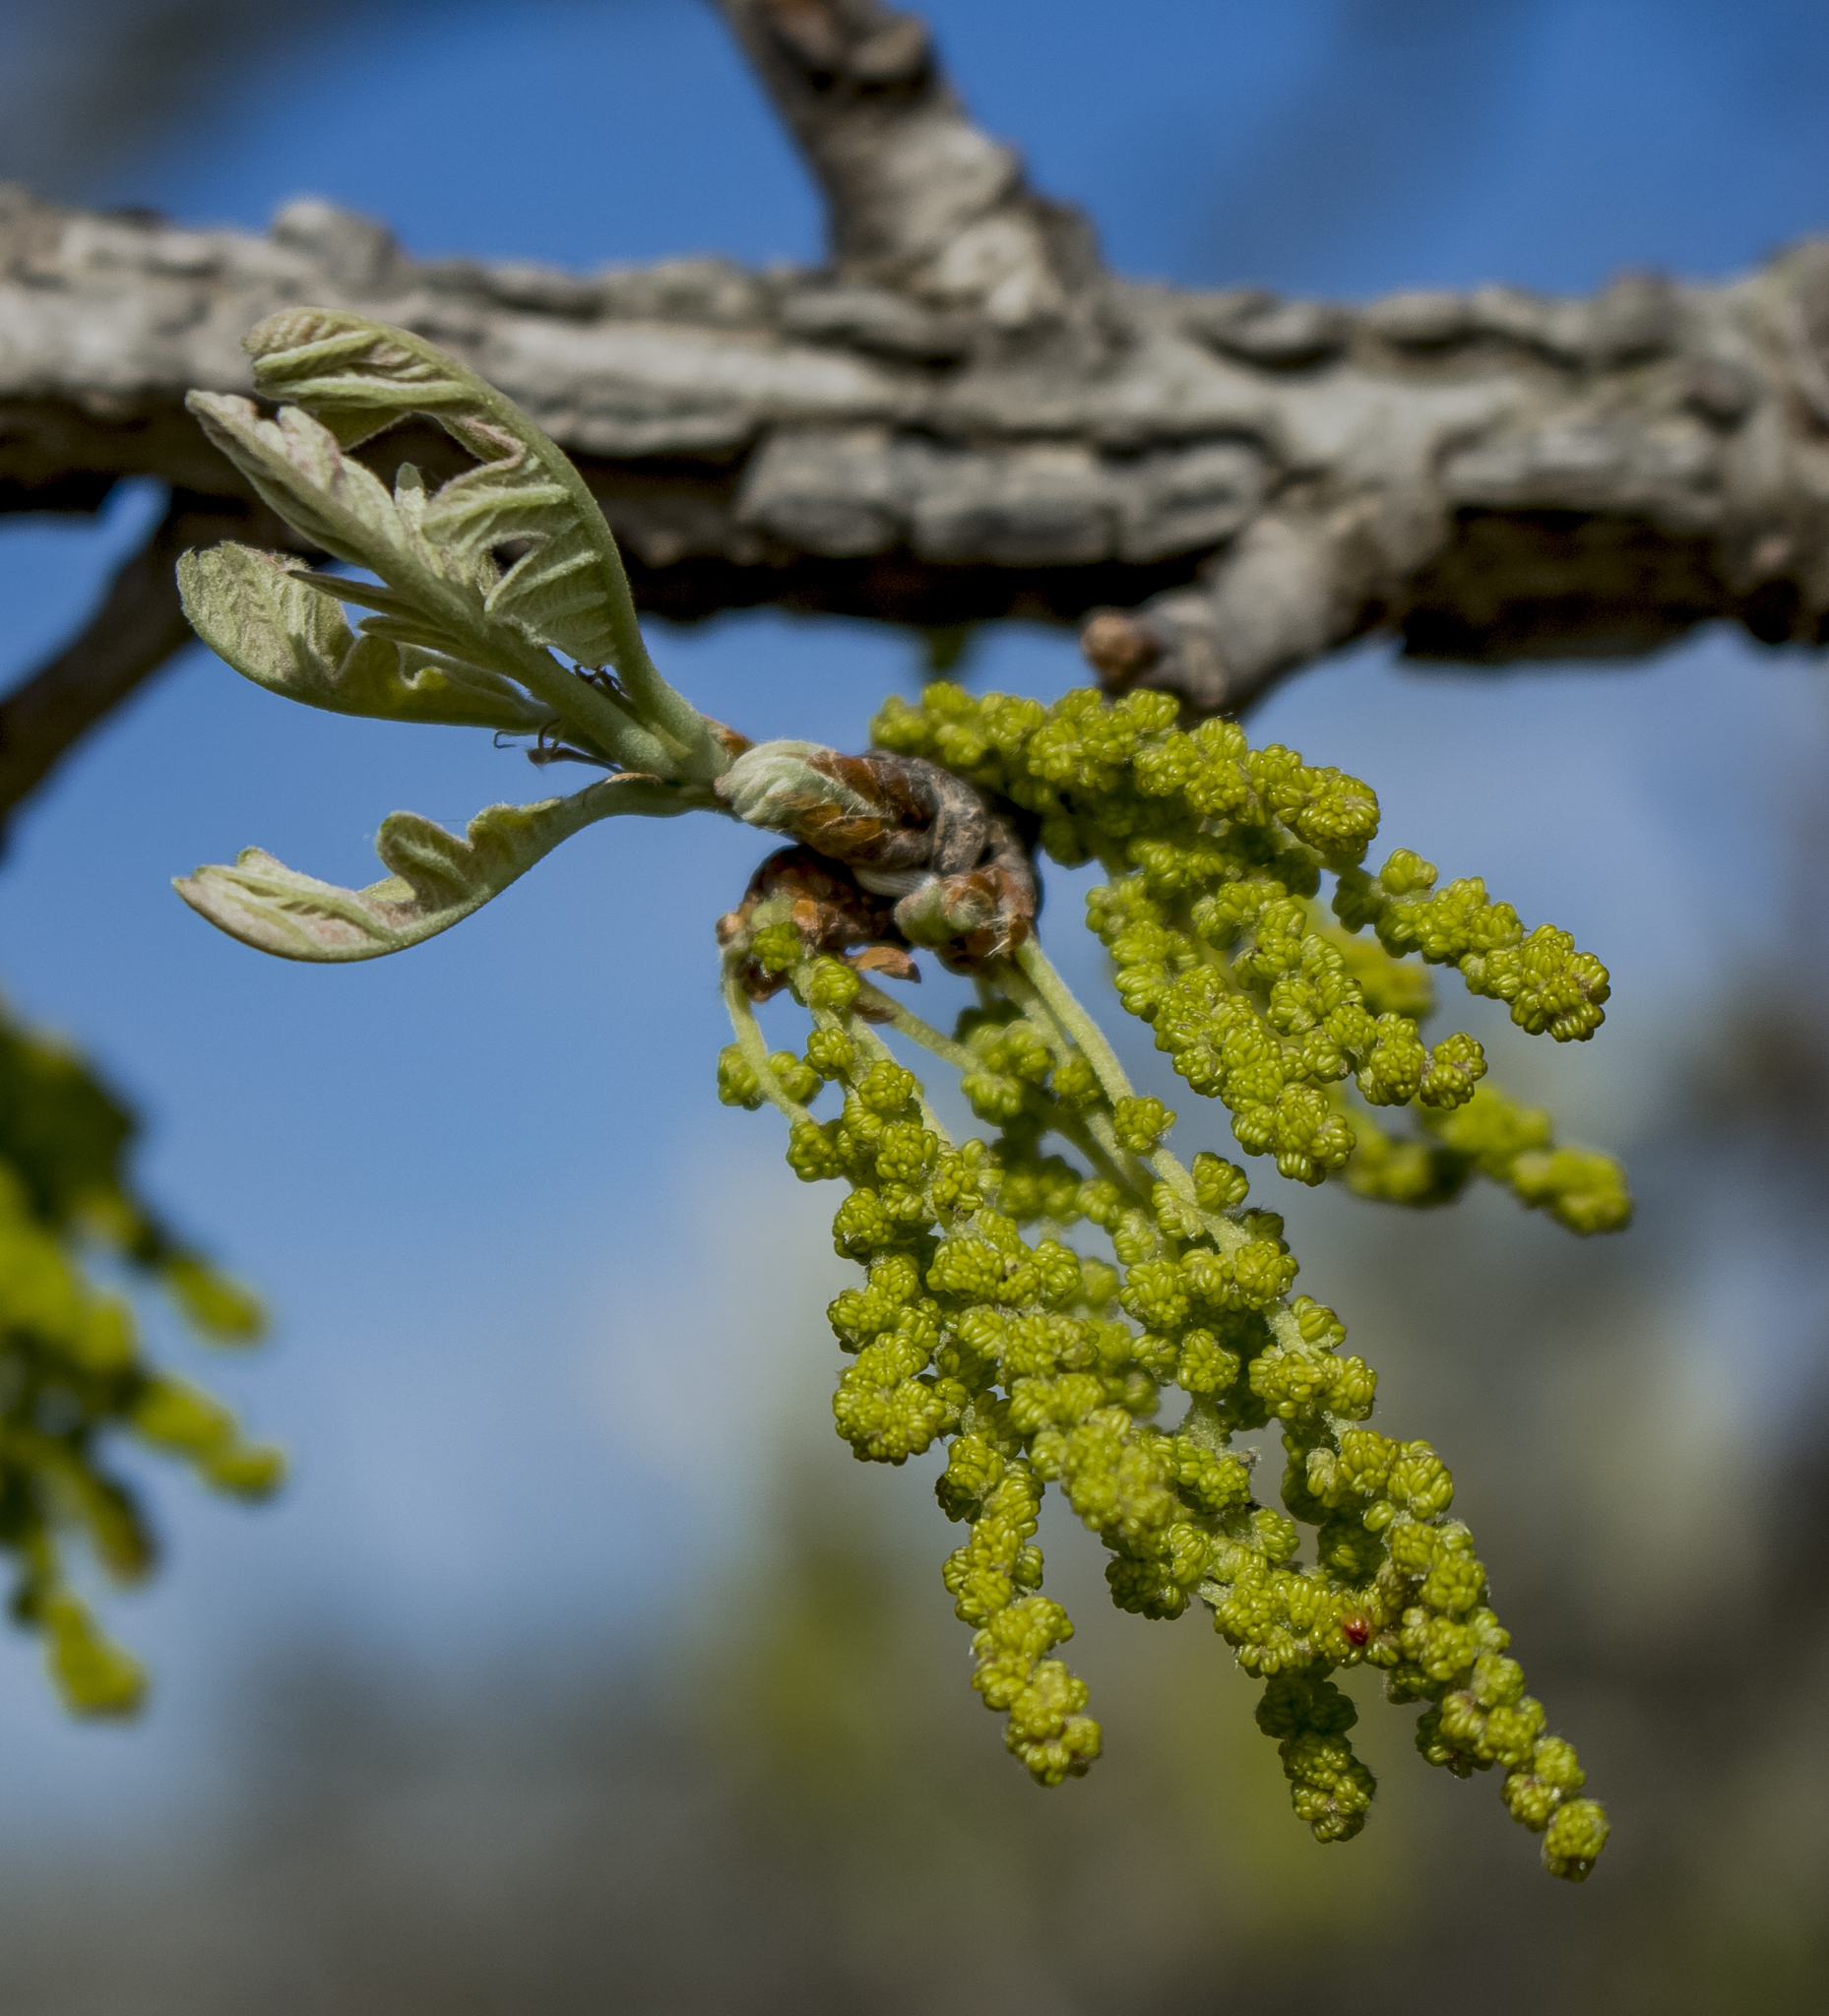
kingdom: Plantae
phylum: Tracheophyta
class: Magnoliopsida
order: Fagales
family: Fagaceae
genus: Quercus
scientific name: Quercus macrocarpa
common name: Bur oak
